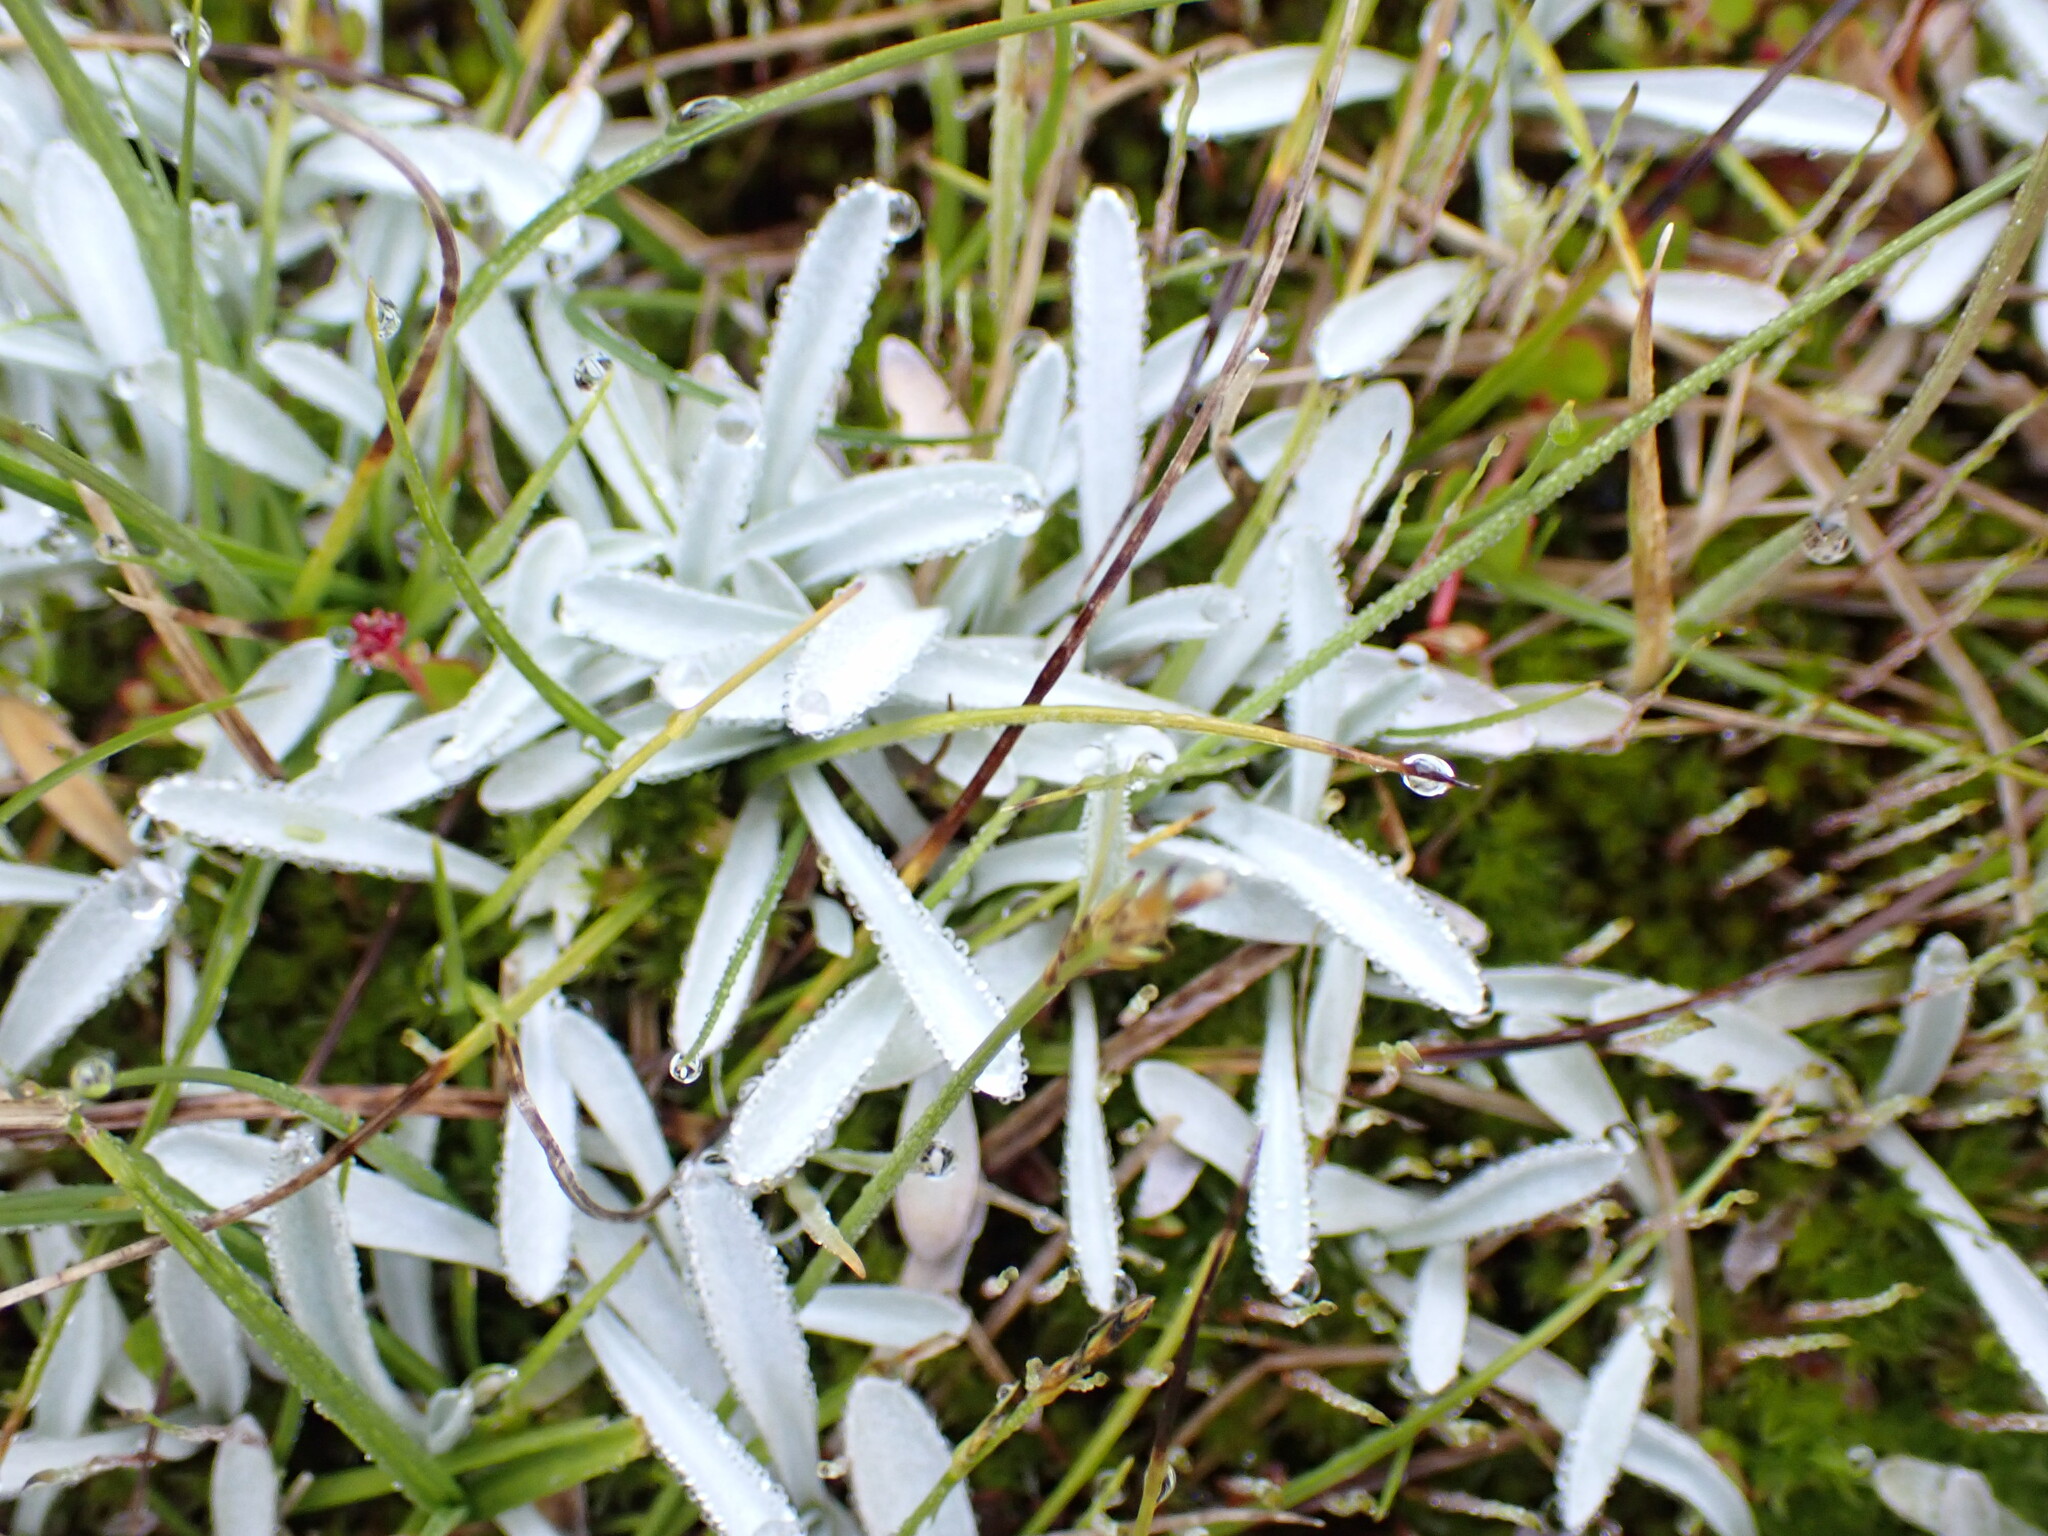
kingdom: Plantae
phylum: Tracheophyta
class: Magnoliopsida
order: Asterales
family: Asteraceae
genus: Euchiton
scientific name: Euchiton traversii
